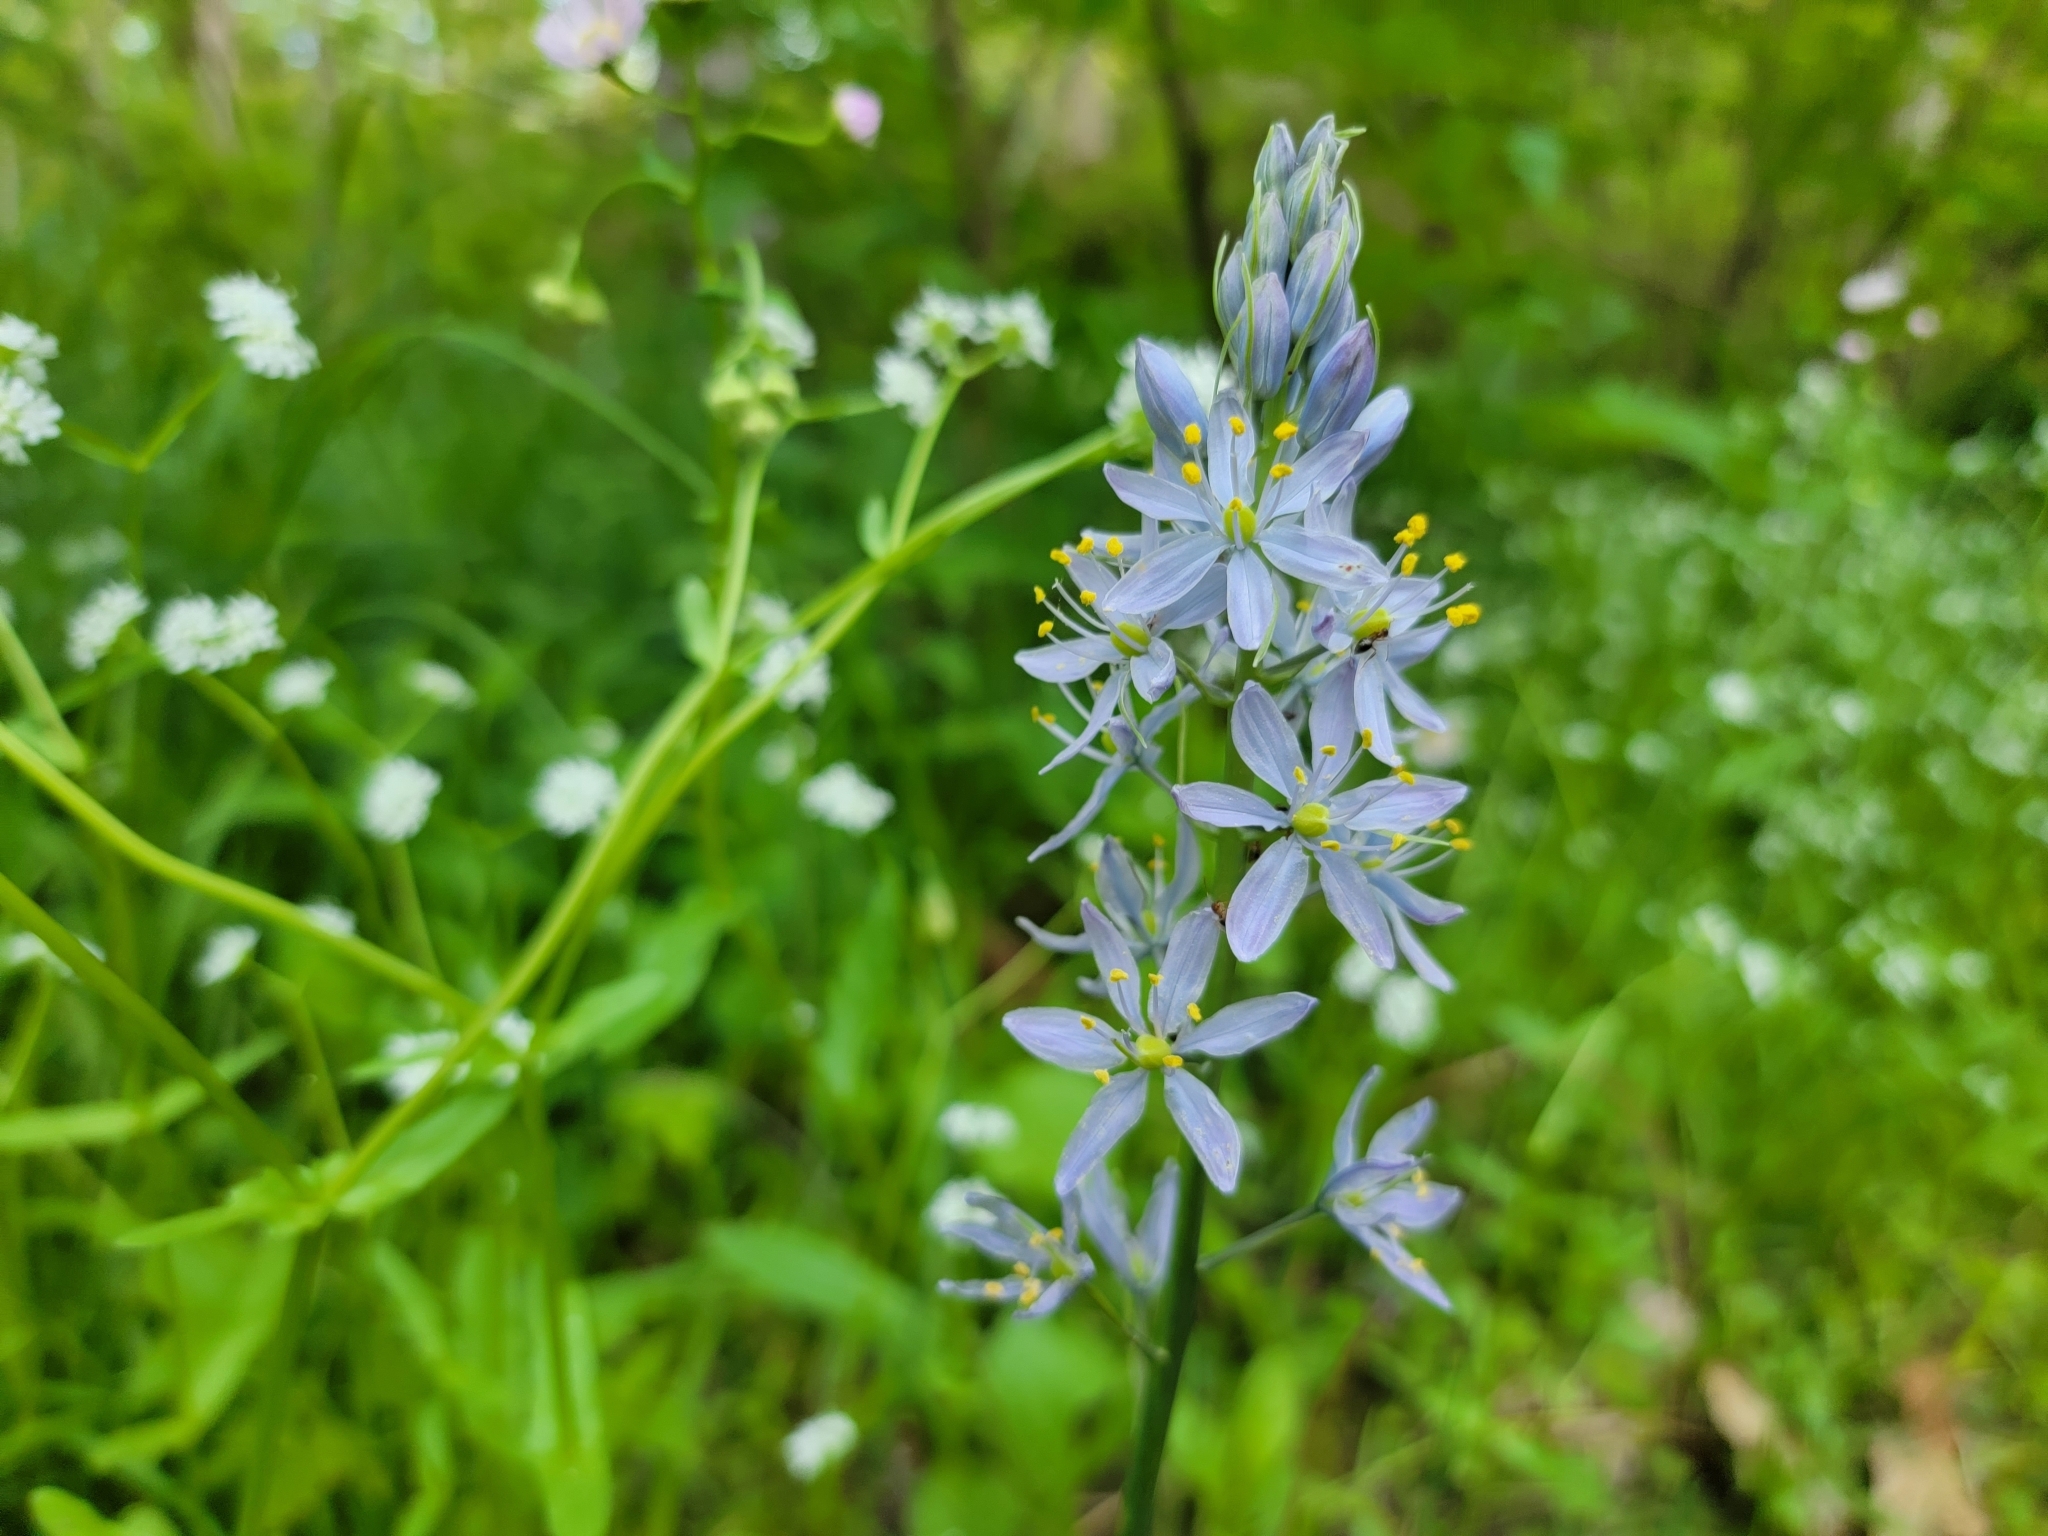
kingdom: Plantae
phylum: Tracheophyta
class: Liliopsida
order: Asparagales
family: Asparagaceae
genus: Camassia
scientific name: Camassia scilloides
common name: Wild hyacinth
